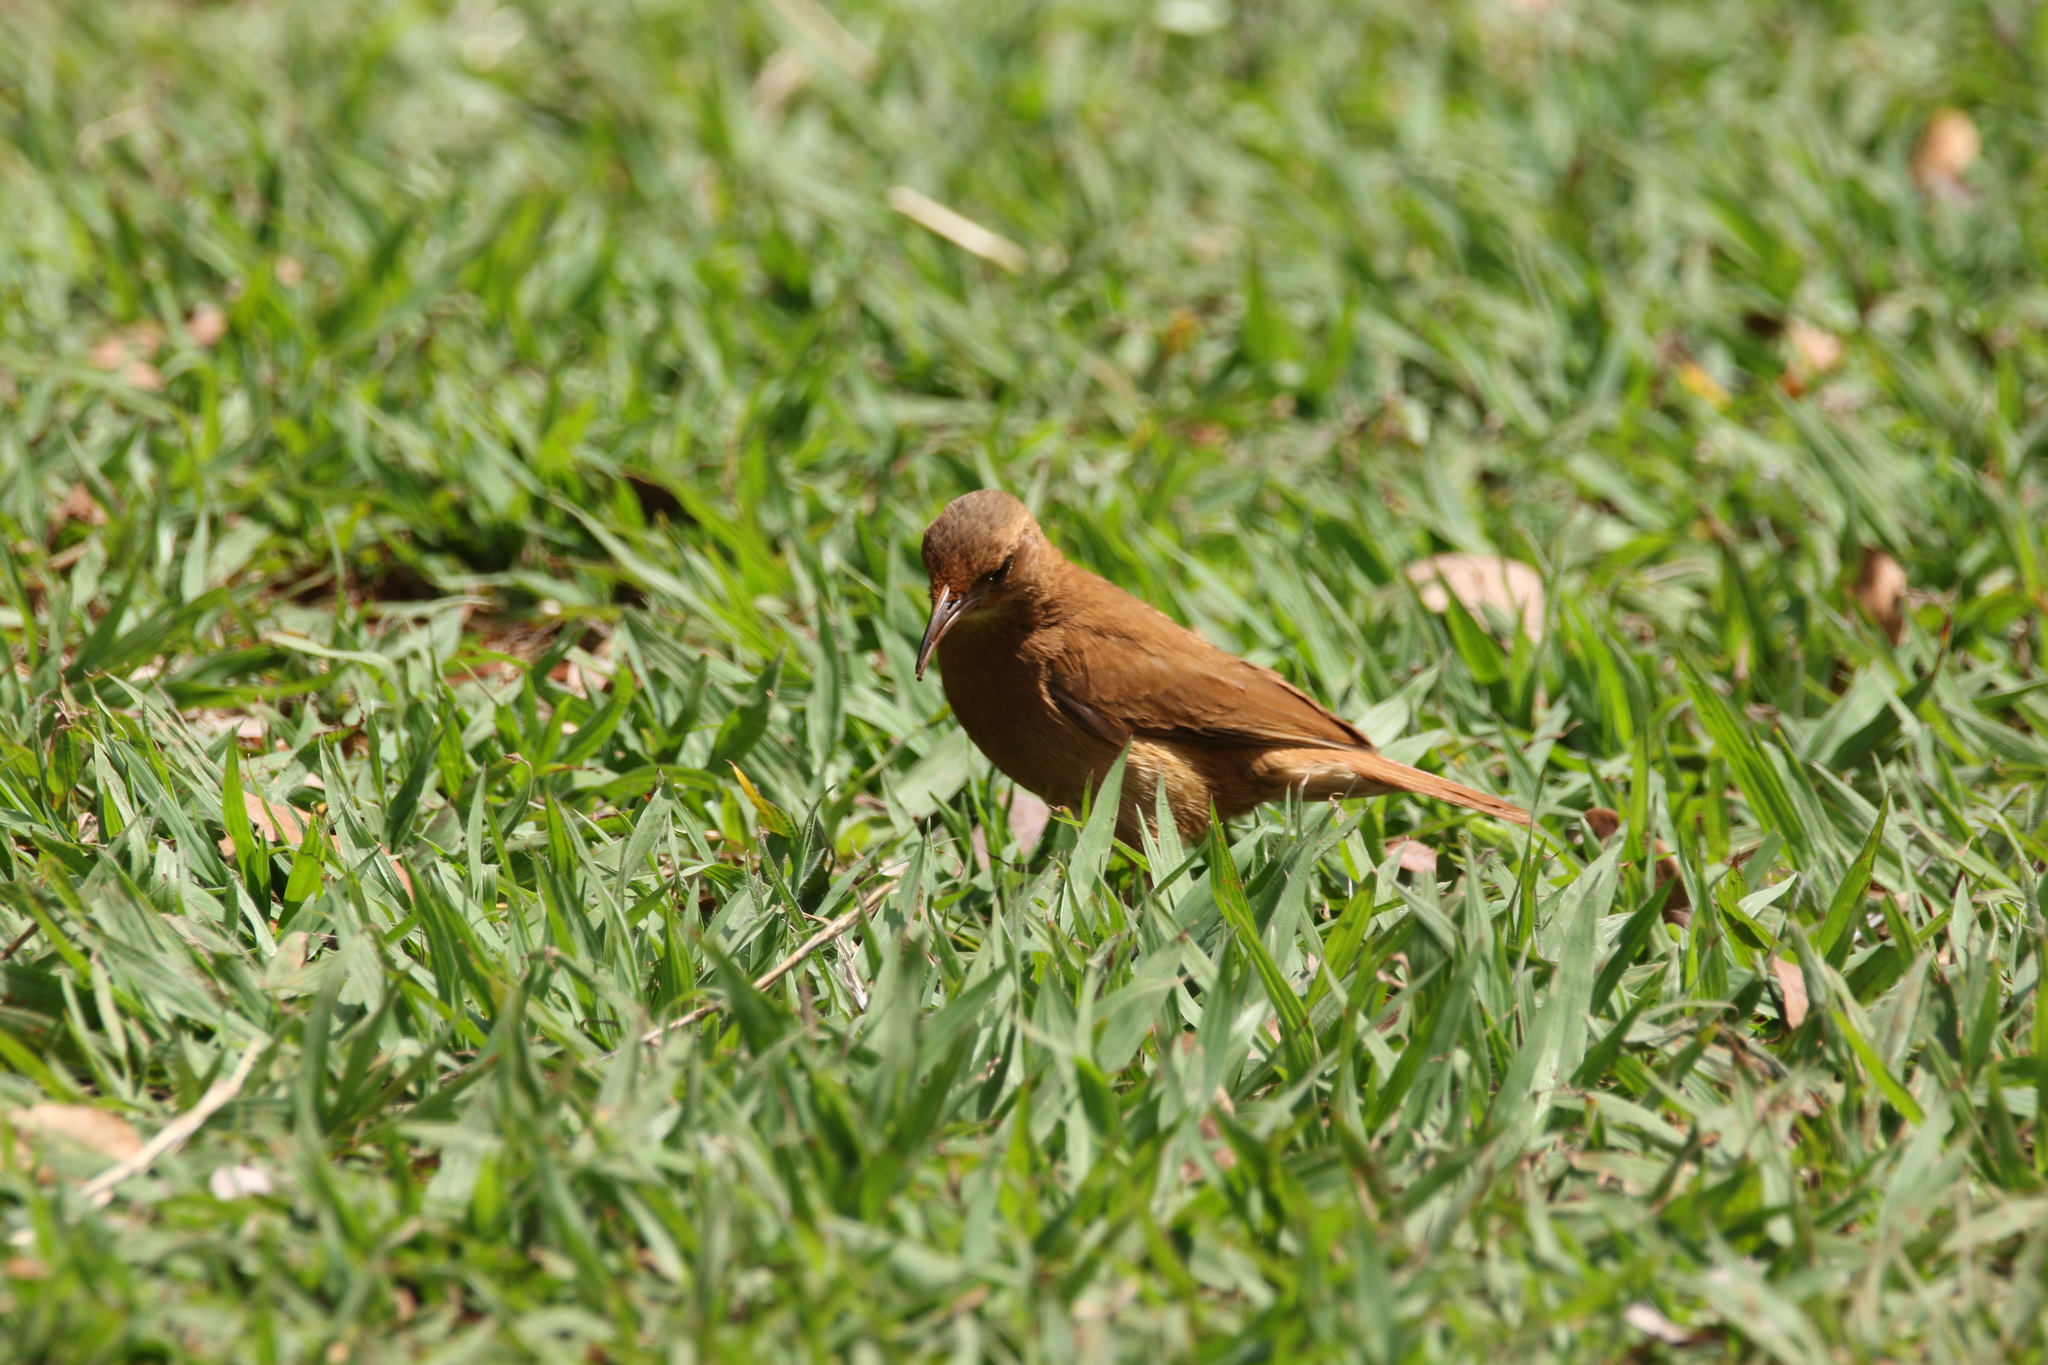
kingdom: Animalia
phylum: Chordata
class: Aves
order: Passeriformes
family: Furnariidae
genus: Furnarius
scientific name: Furnarius rufus
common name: Rufous hornero
